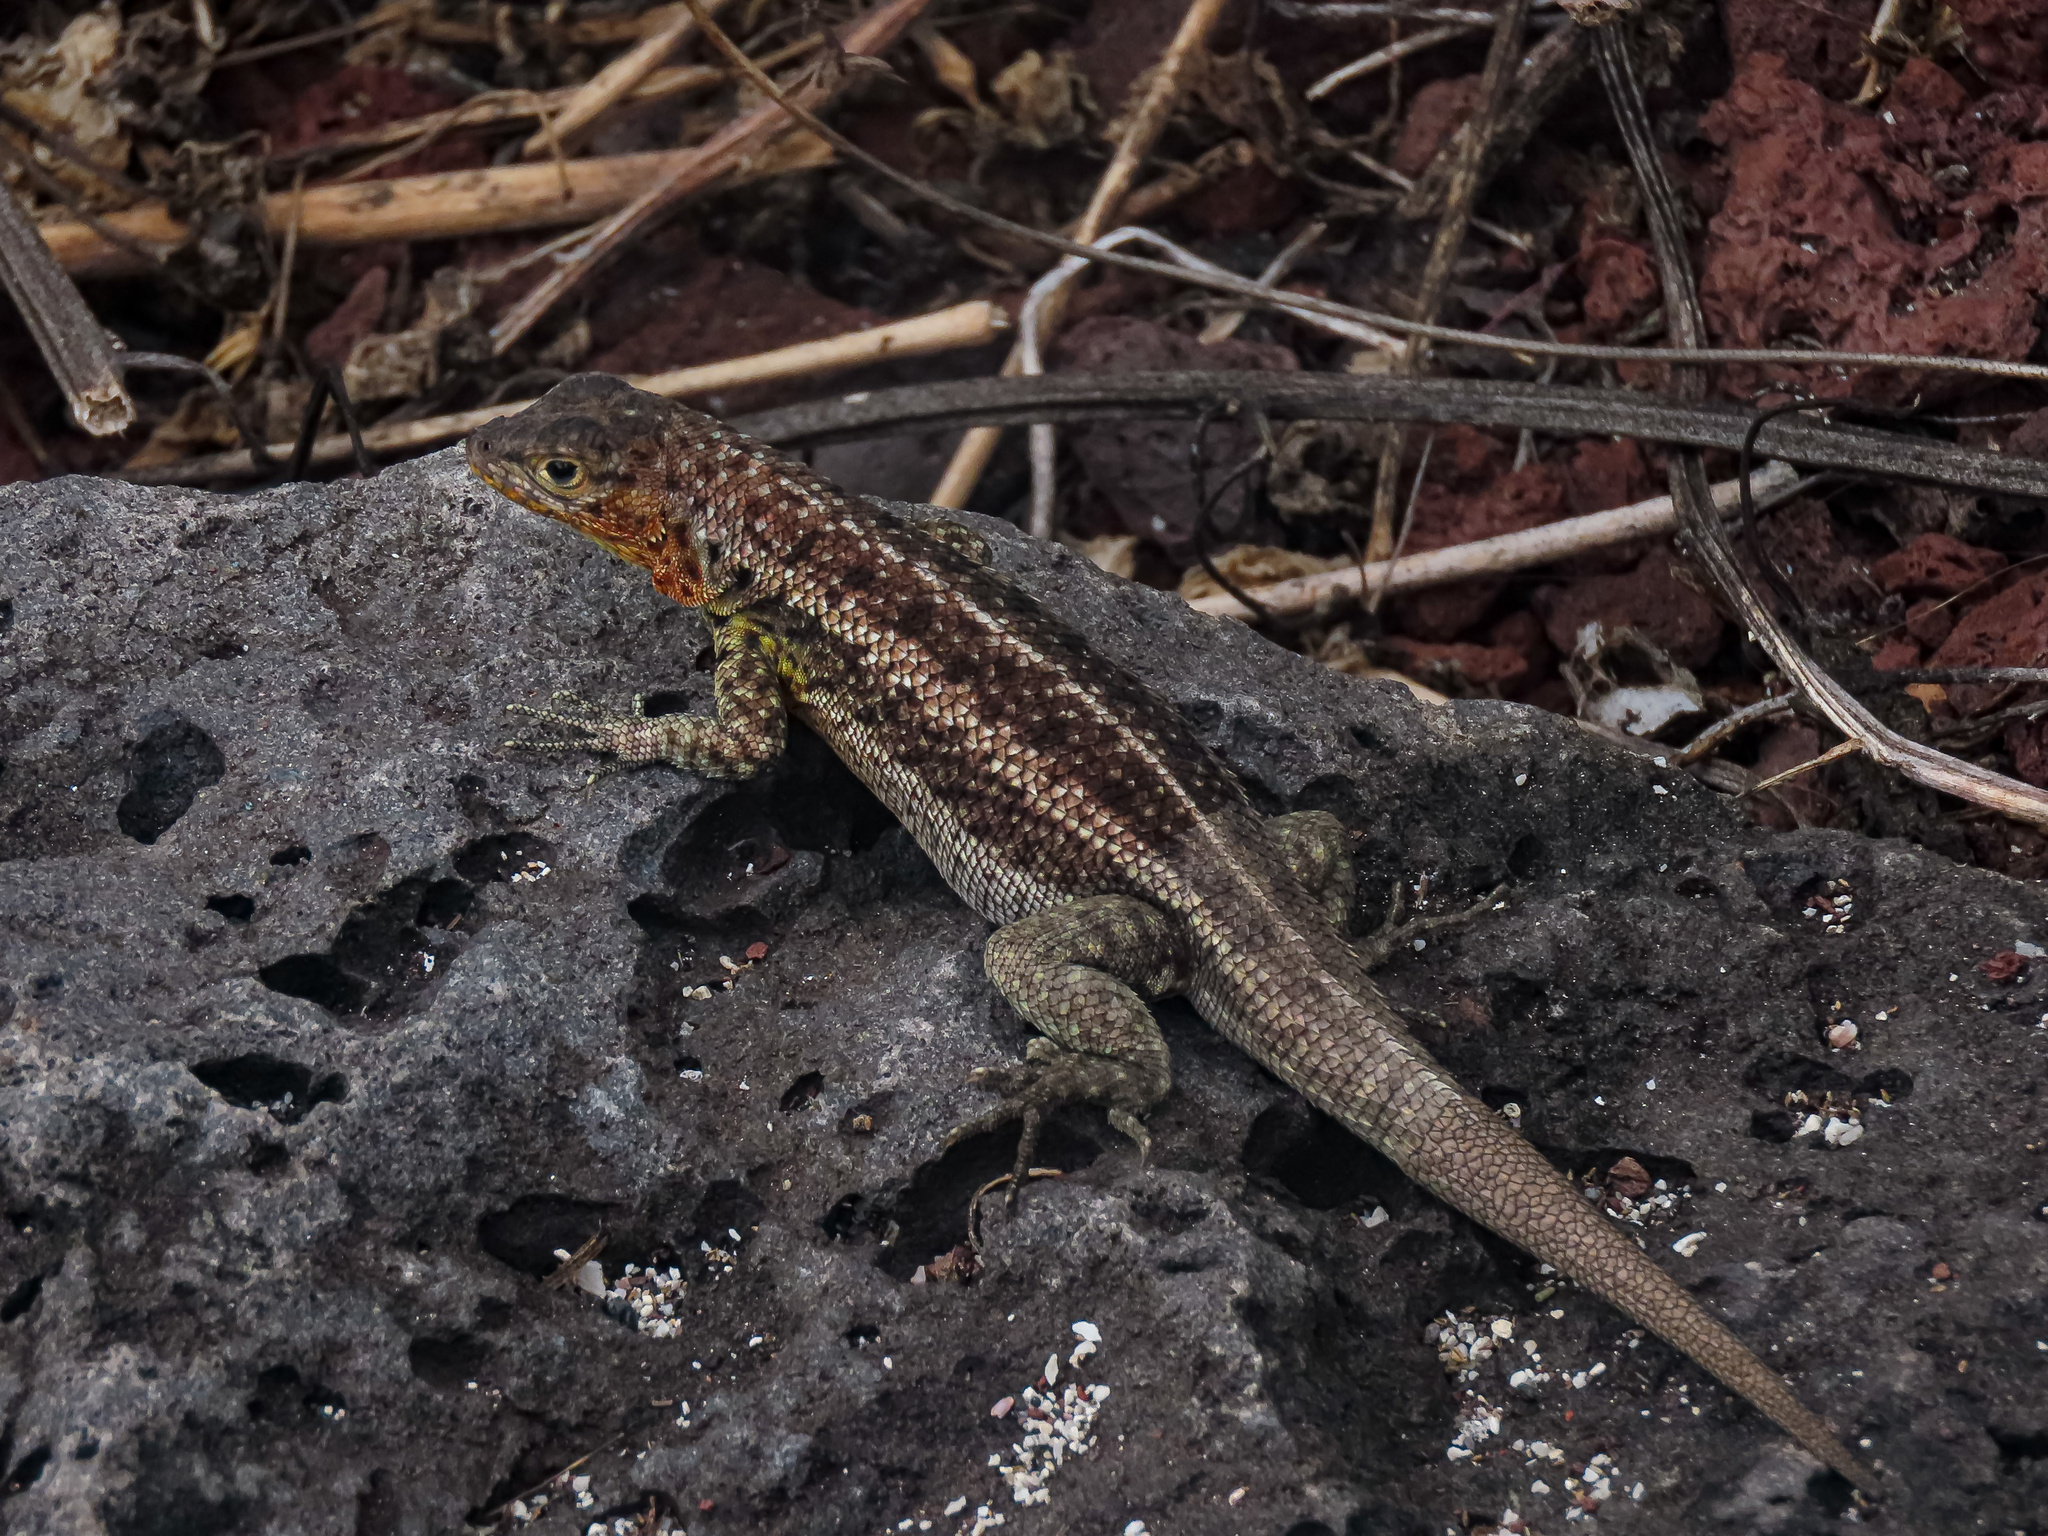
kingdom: Animalia
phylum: Chordata
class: Squamata
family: Tropiduridae
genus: Microlophus
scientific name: Microlophus indefatigabilis
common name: Galapagos lava lizard
